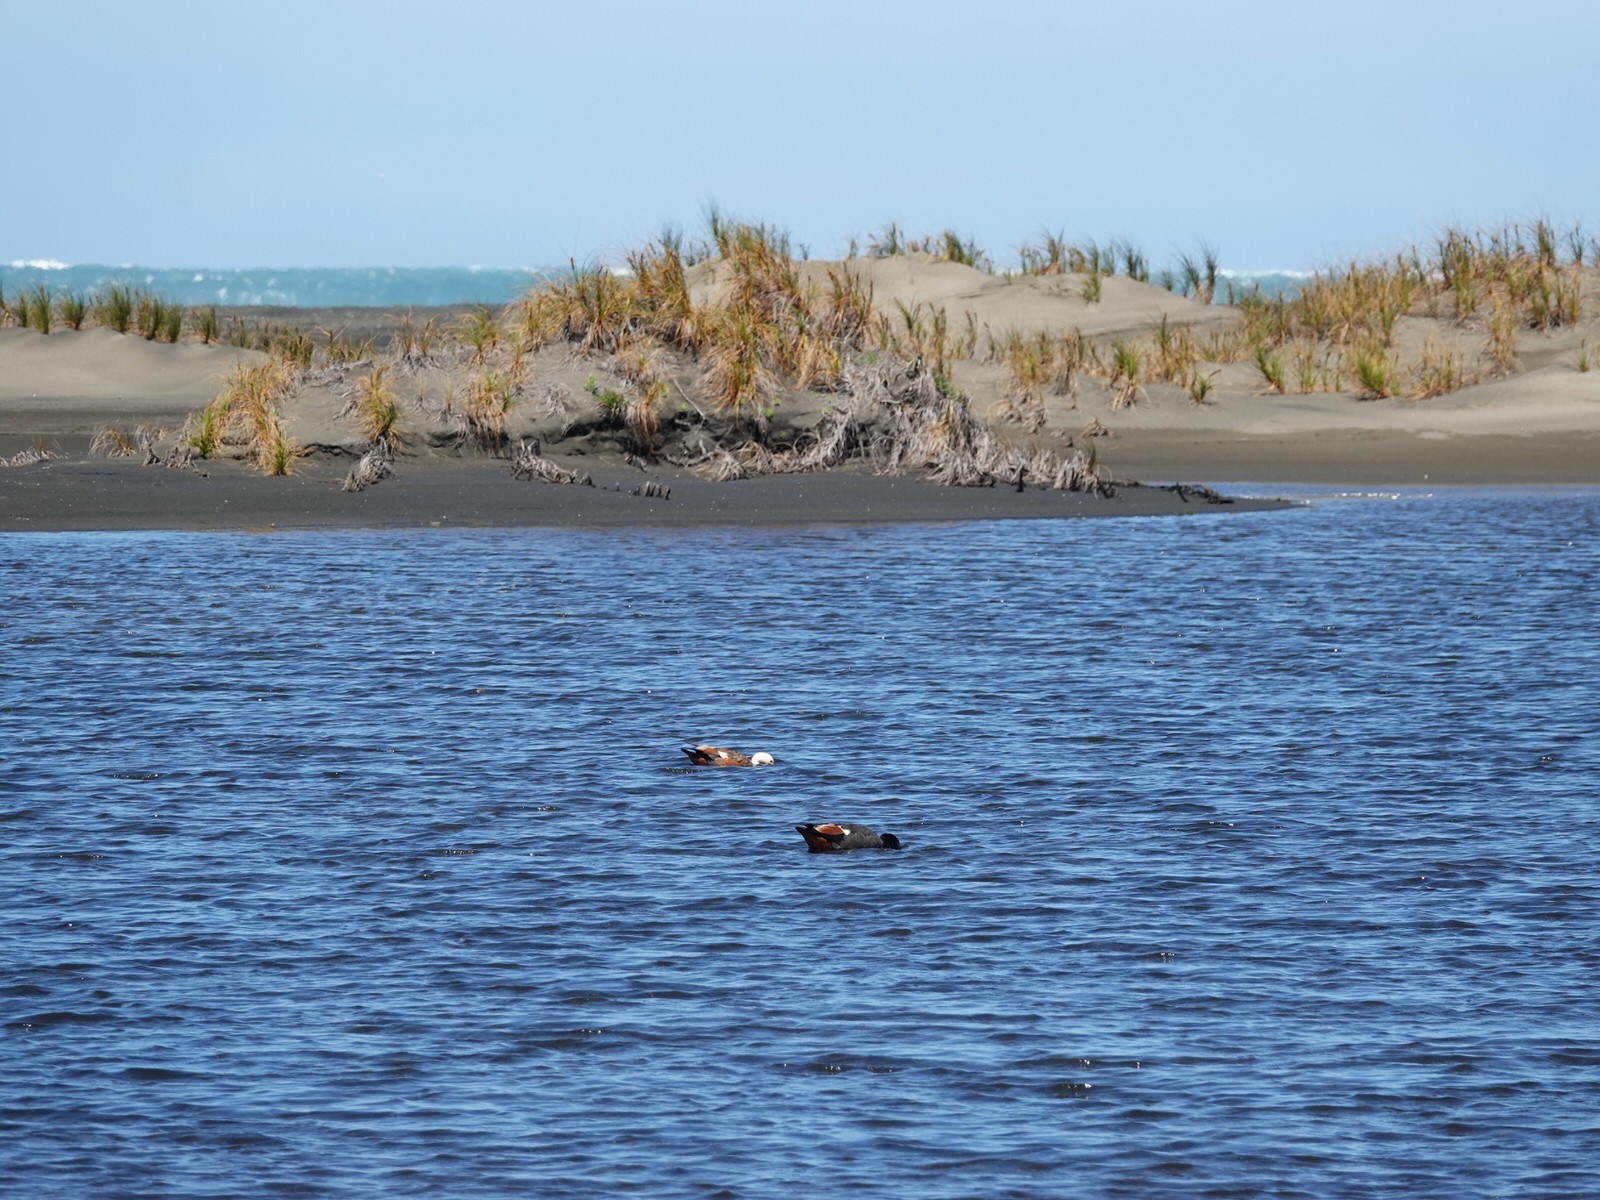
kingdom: Animalia
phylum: Chordata
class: Aves
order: Anseriformes
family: Anatidae
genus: Tadorna
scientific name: Tadorna variegata
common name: Paradise shelduck
